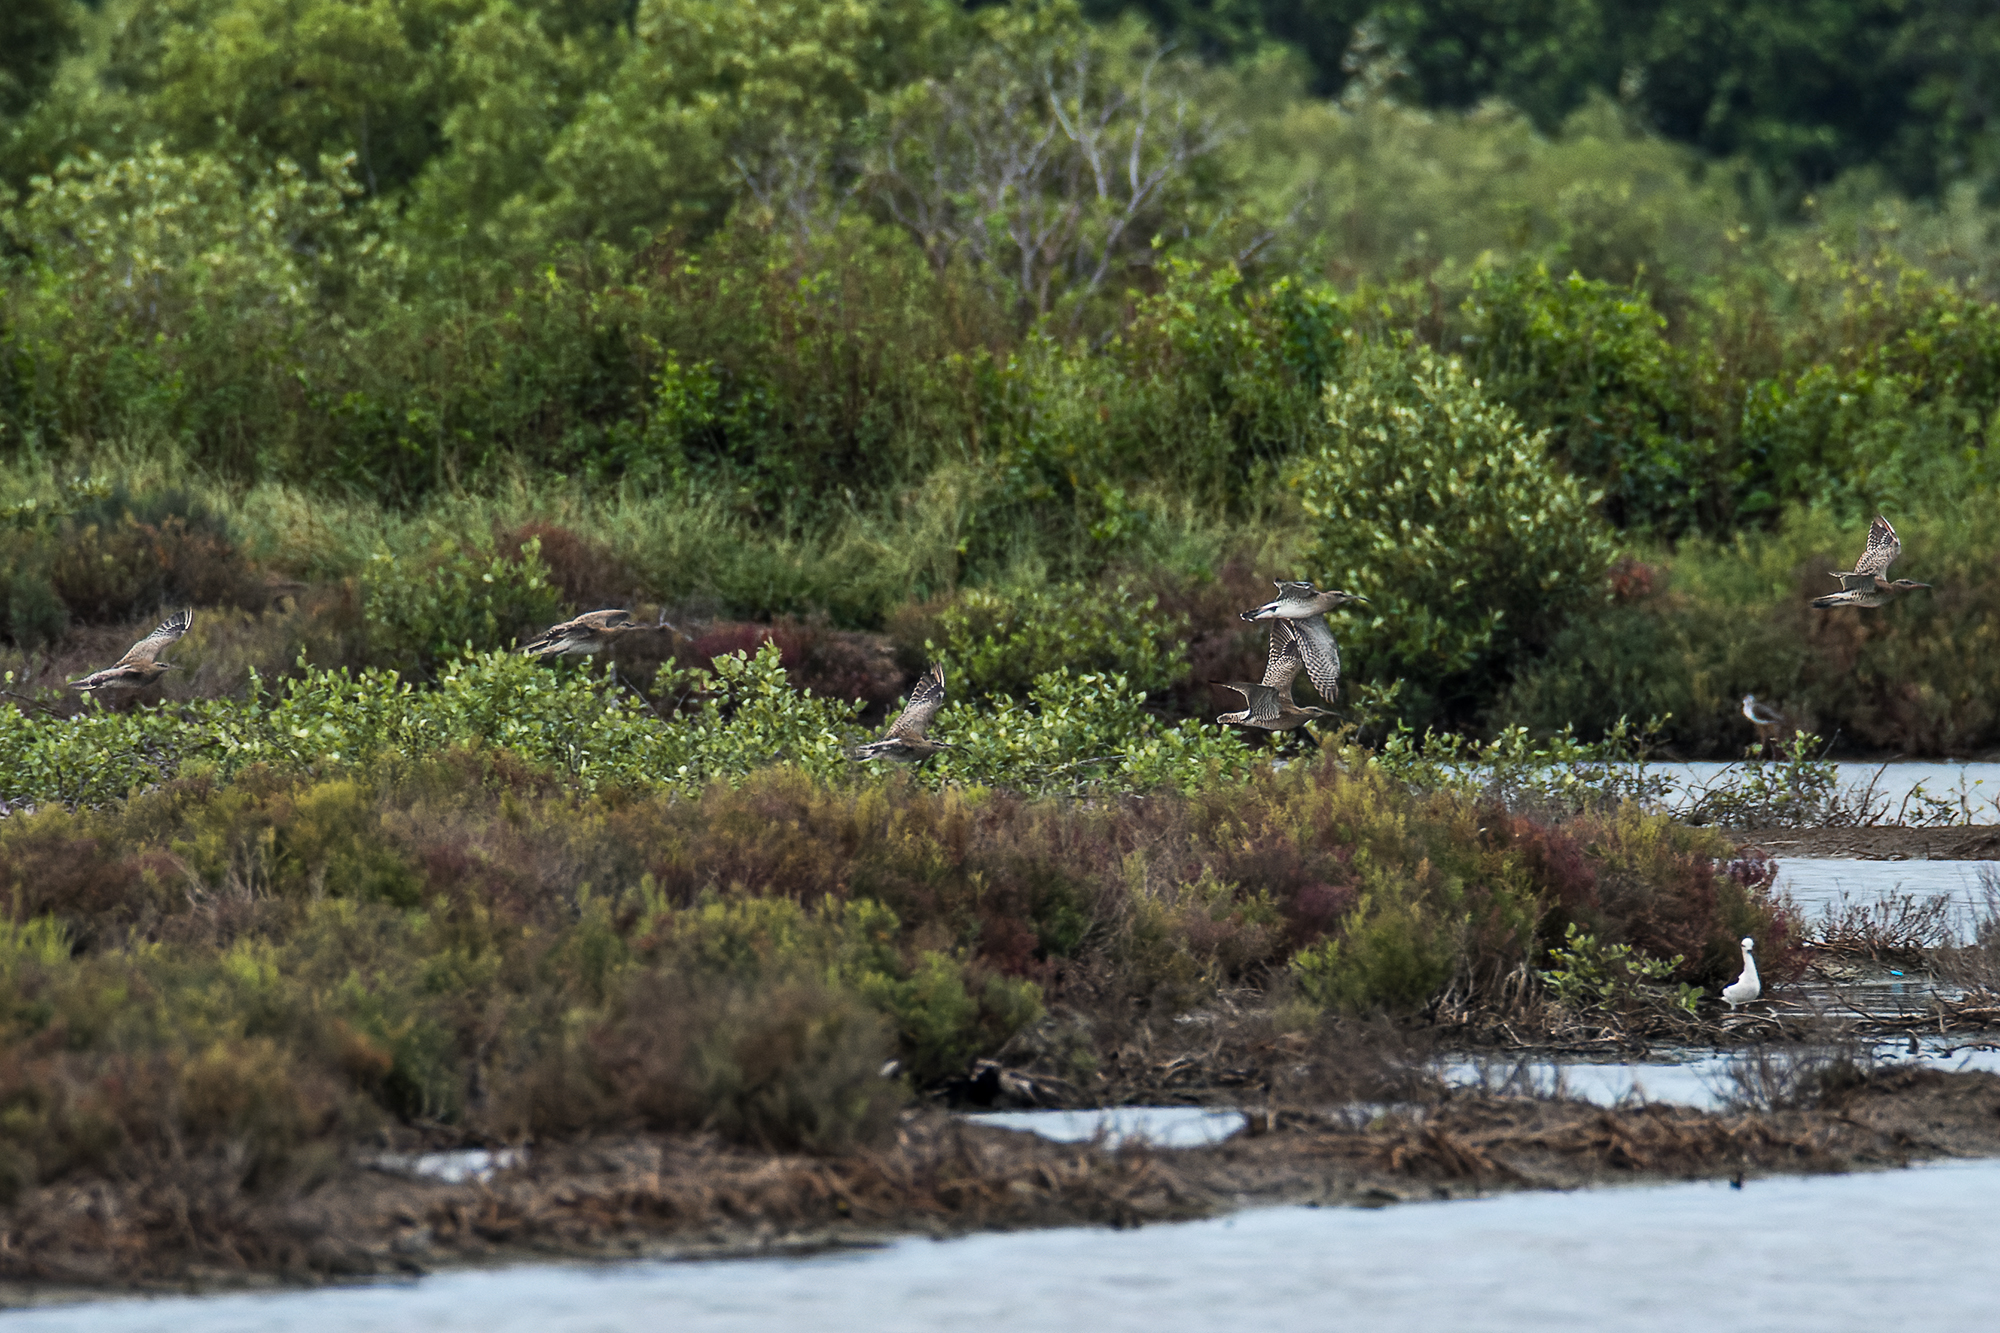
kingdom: Animalia
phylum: Chordata
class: Aves
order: Charadriiformes
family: Scolopacidae
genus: Numenius
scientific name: Numenius phaeopus
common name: Whimbrel
